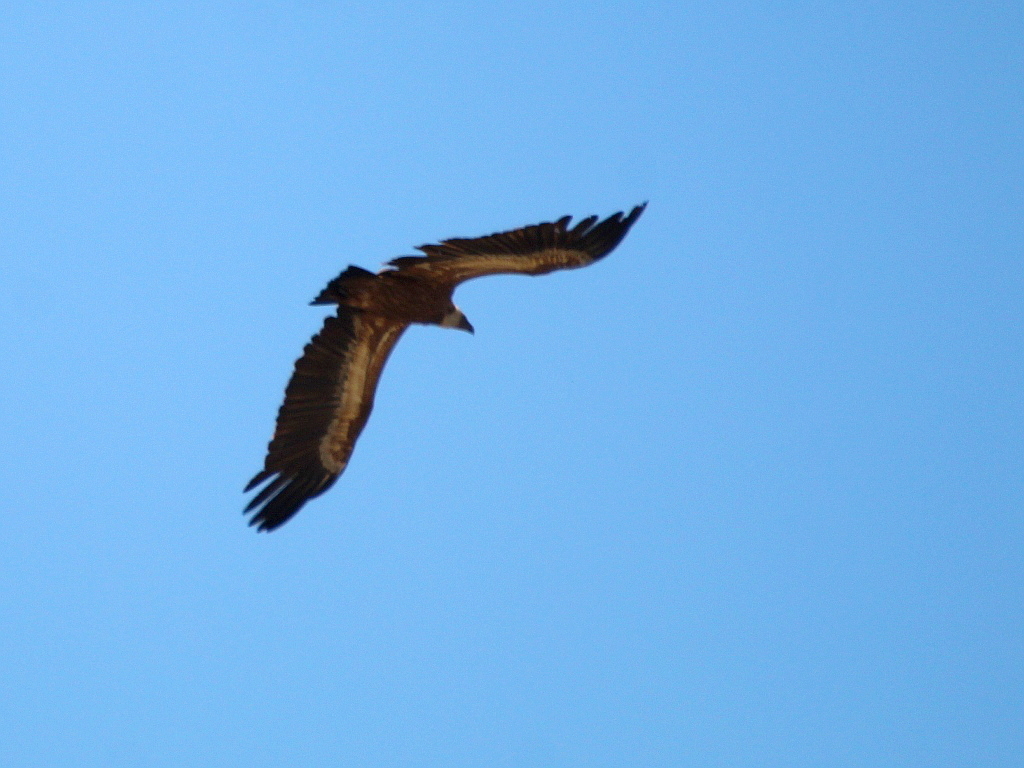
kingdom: Animalia
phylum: Chordata
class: Aves
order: Accipitriformes
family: Accipitridae
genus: Gyps
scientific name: Gyps fulvus
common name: Griffon vulture
